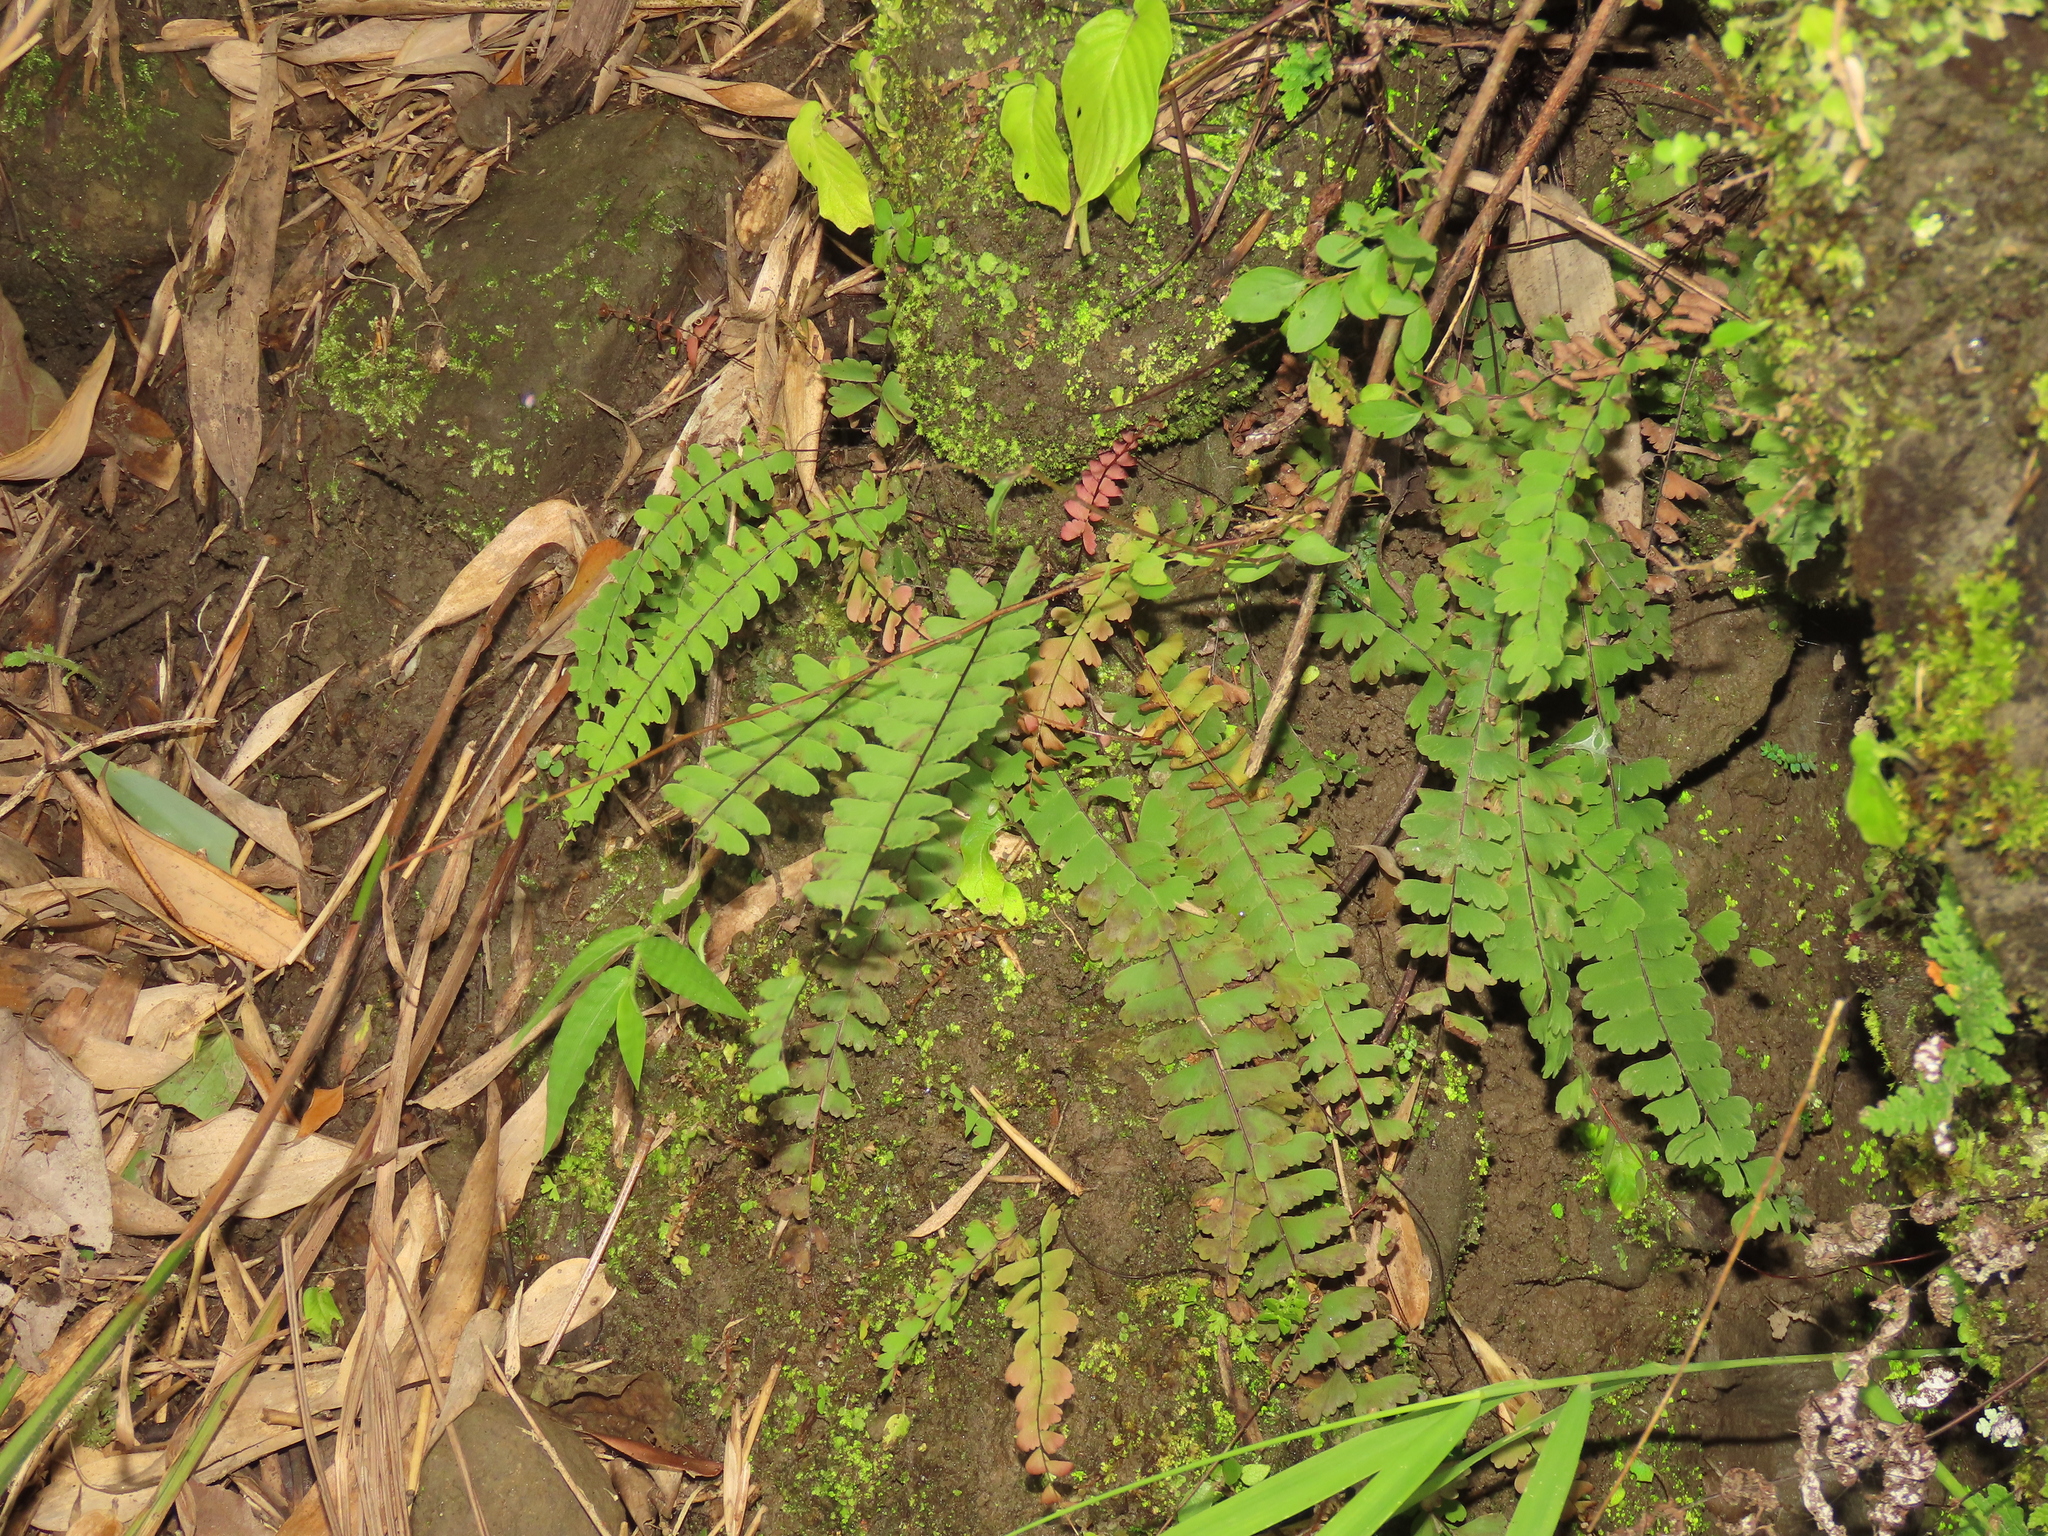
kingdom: Plantae
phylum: Tracheophyta
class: Polypodiopsida
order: Polypodiales
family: Pteridaceae
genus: Adiantum
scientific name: Adiantum edgeworthii
